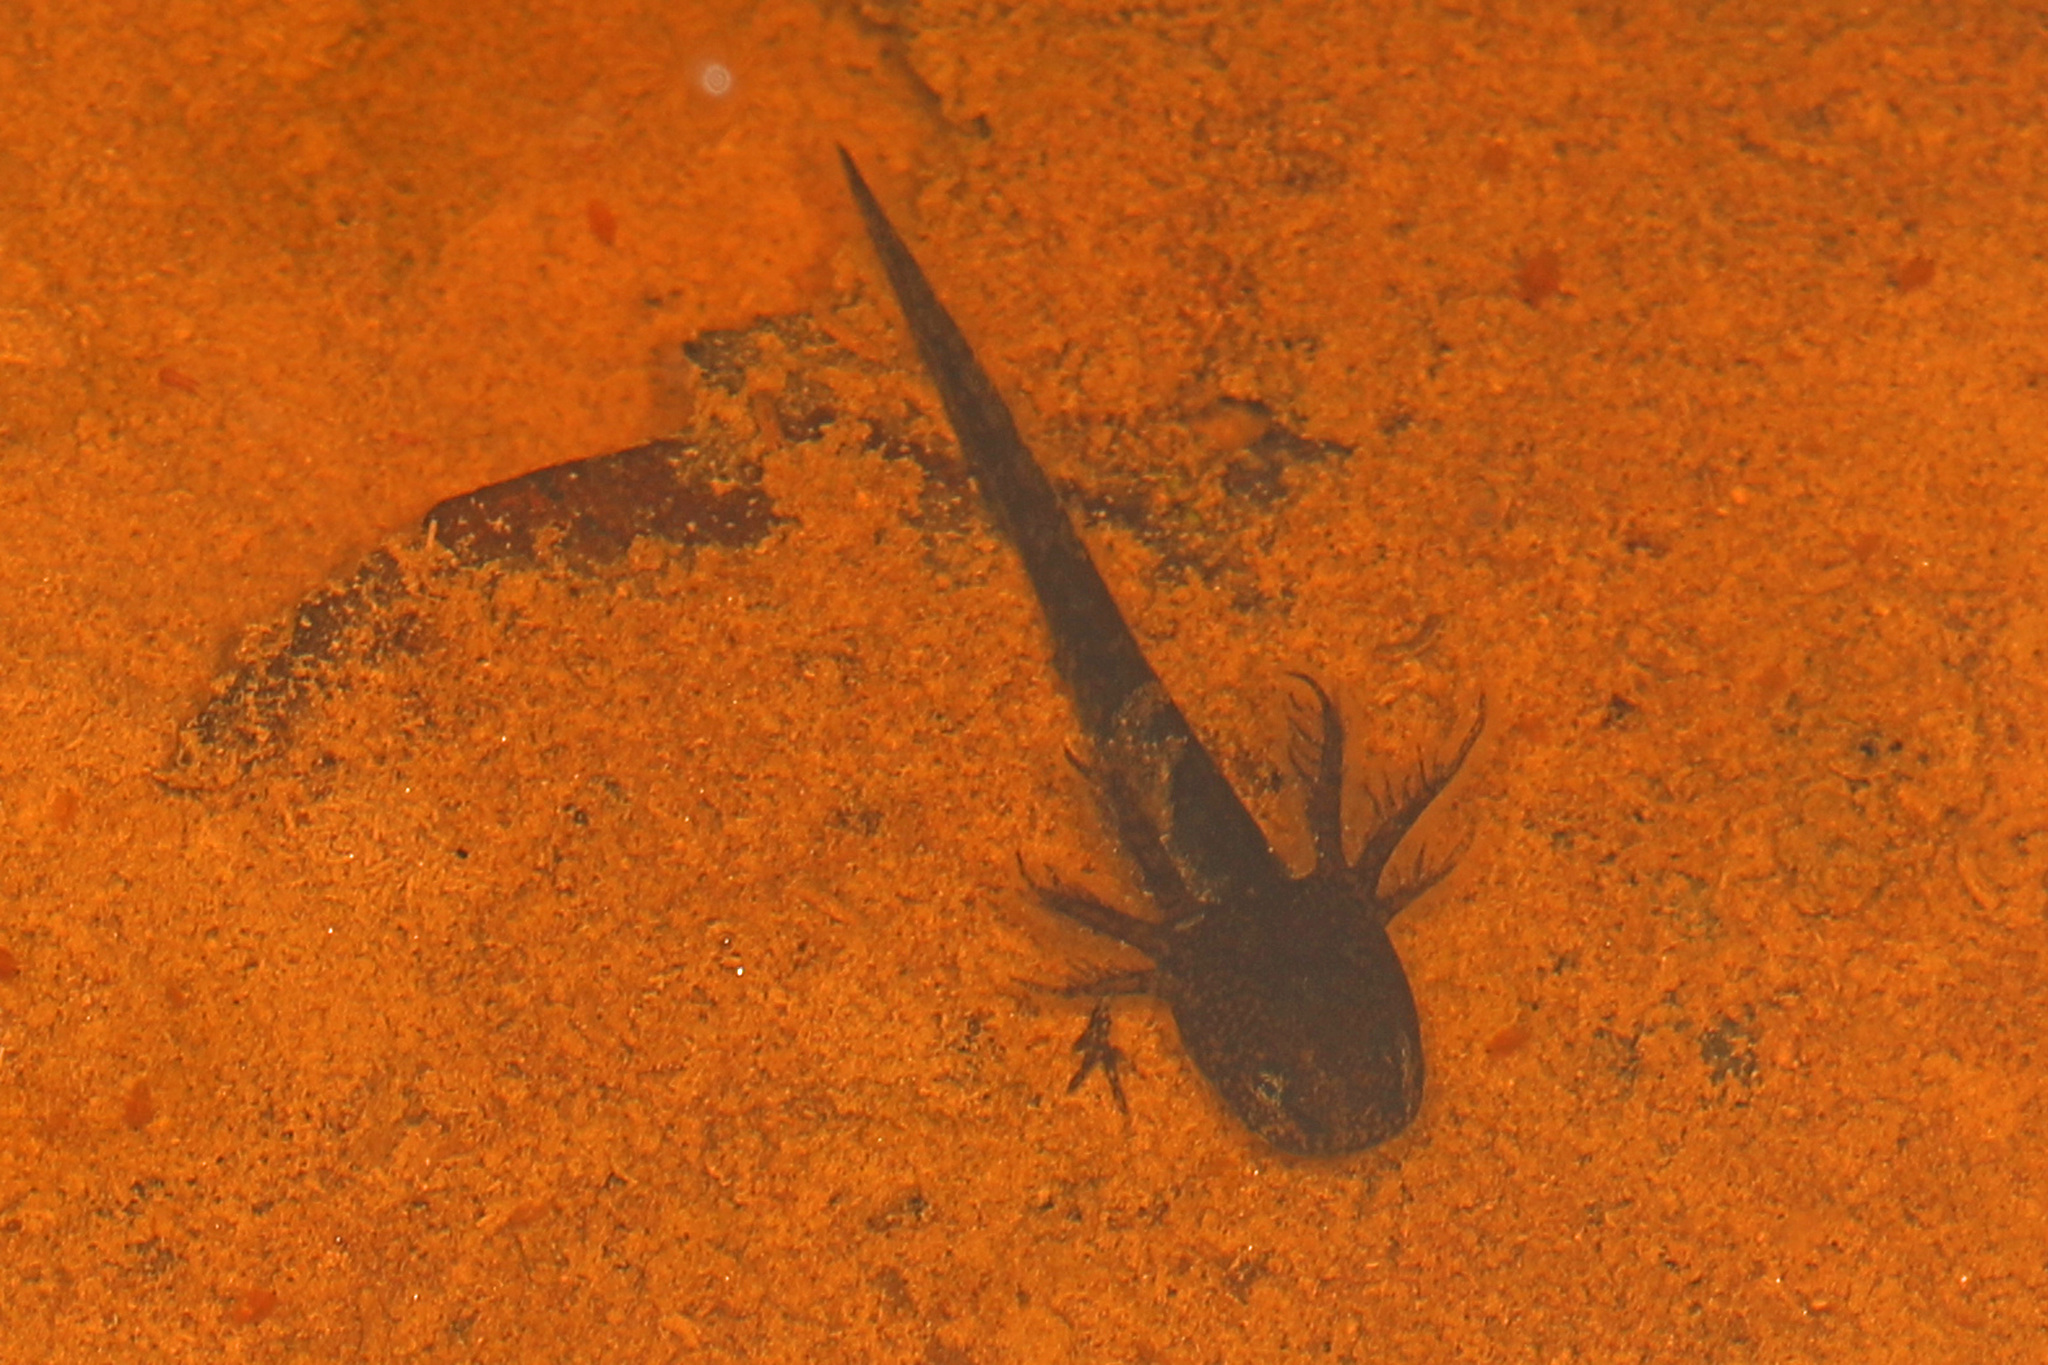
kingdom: Animalia
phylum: Chordata
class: Amphibia
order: Caudata
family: Ambystomatidae
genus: Ambystoma
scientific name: Ambystoma opacum
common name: Marbled salamander
